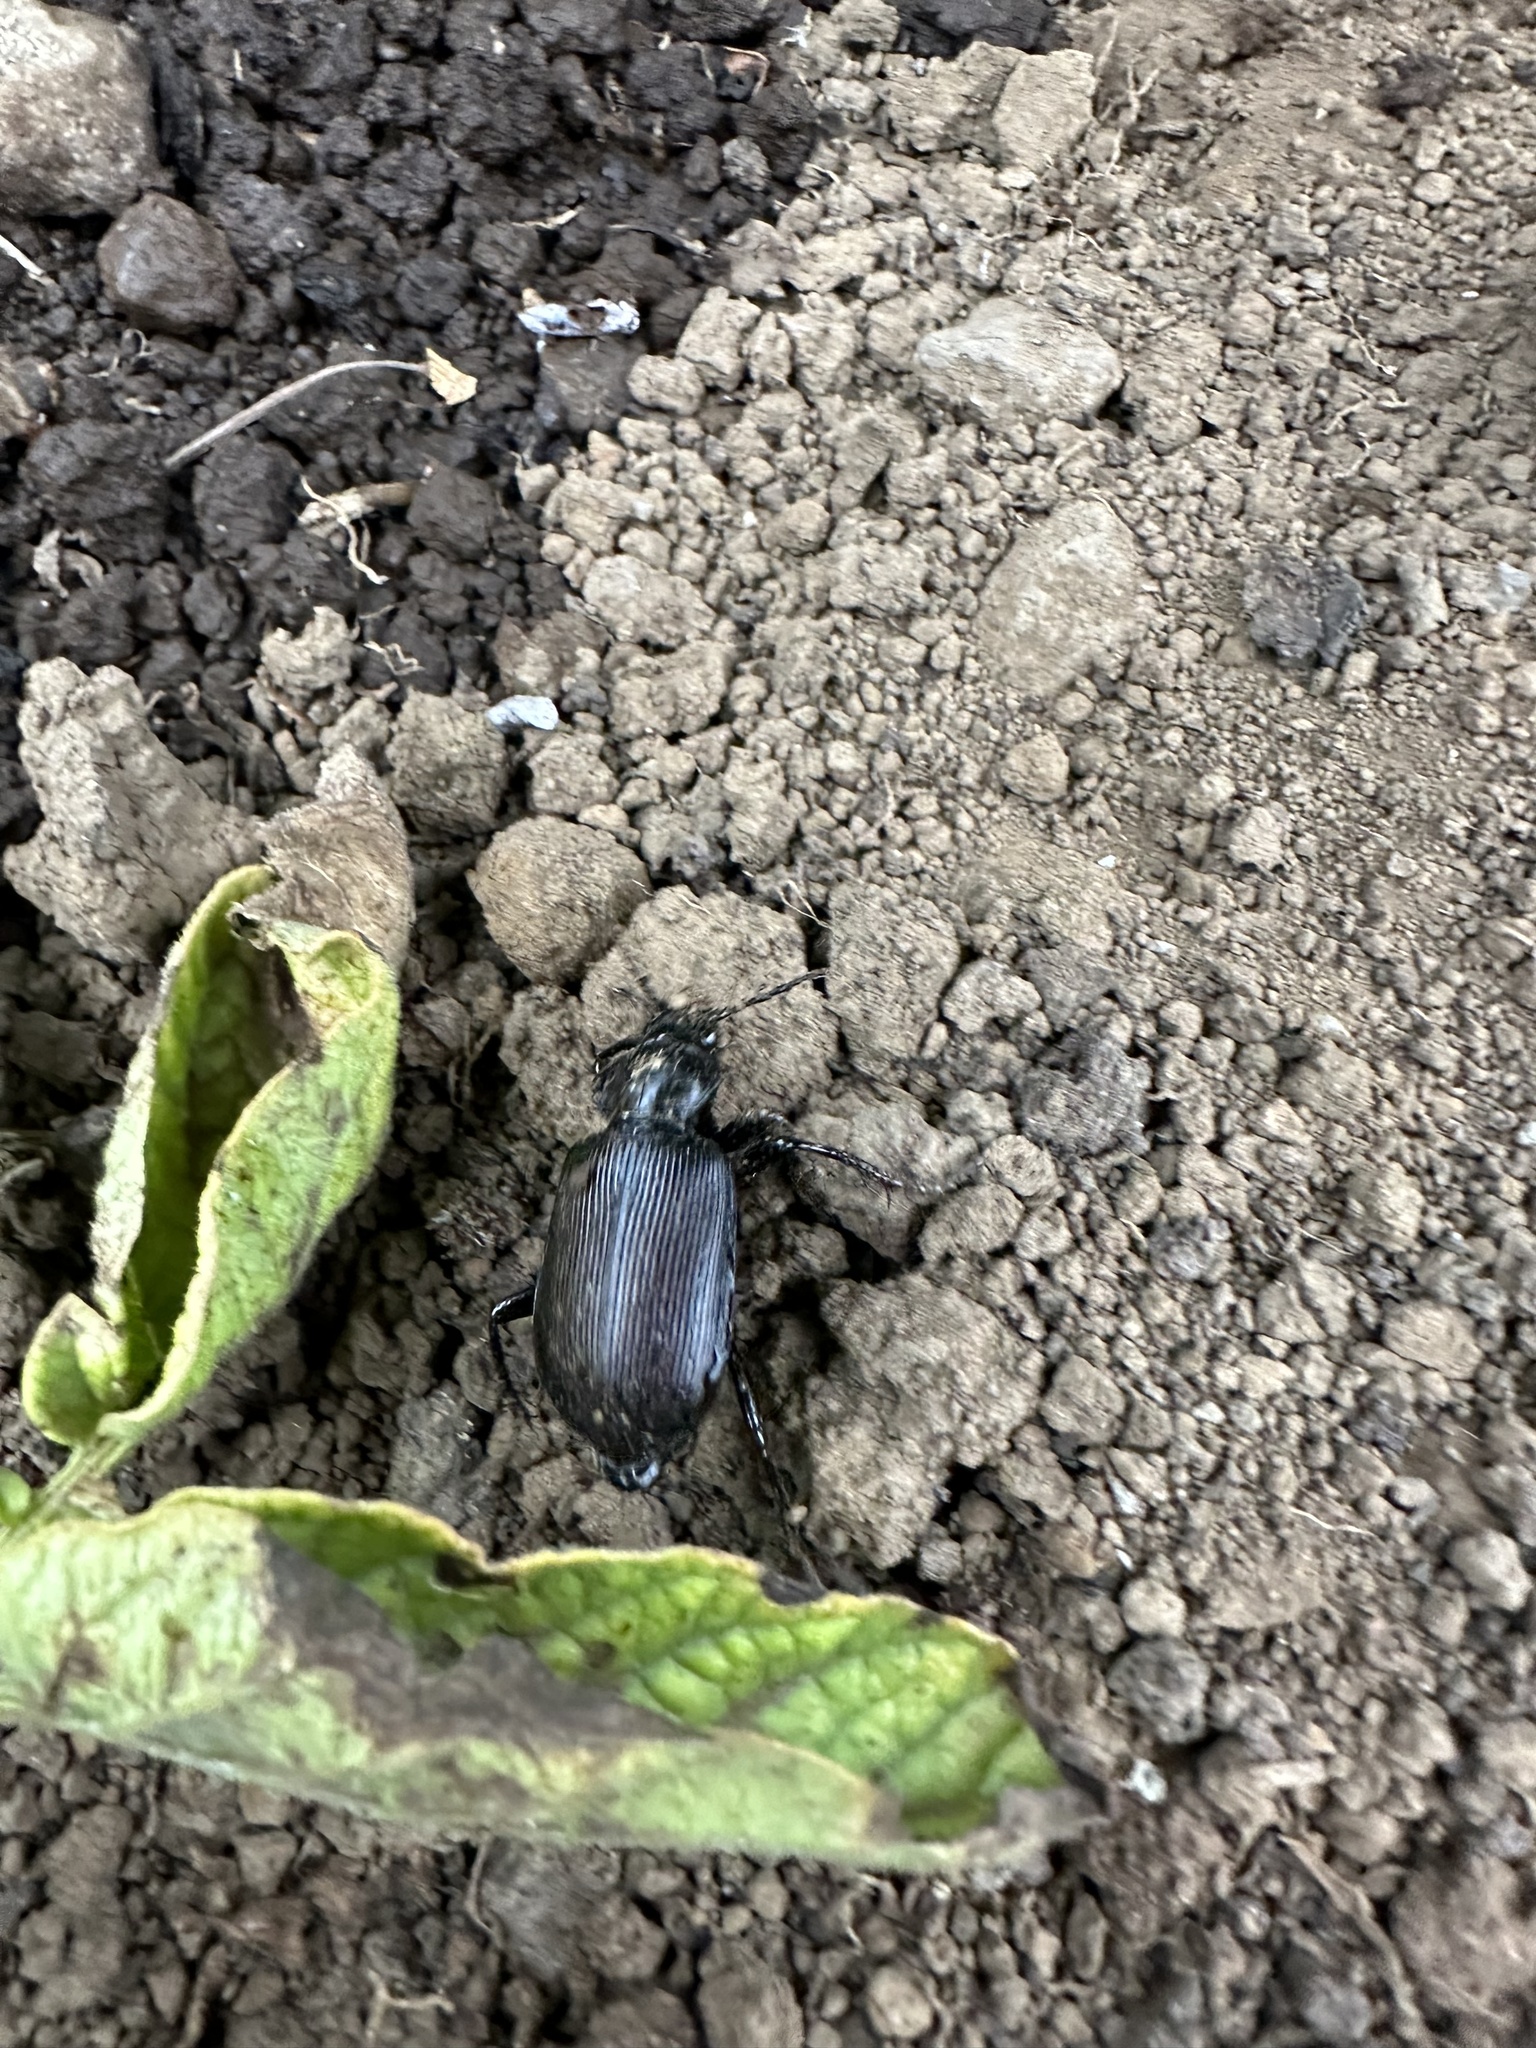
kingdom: Animalia
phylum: Arthropoda
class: Insecta
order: Coleoptera
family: Carabidae
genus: Calosoma
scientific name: Calosoma vagans
